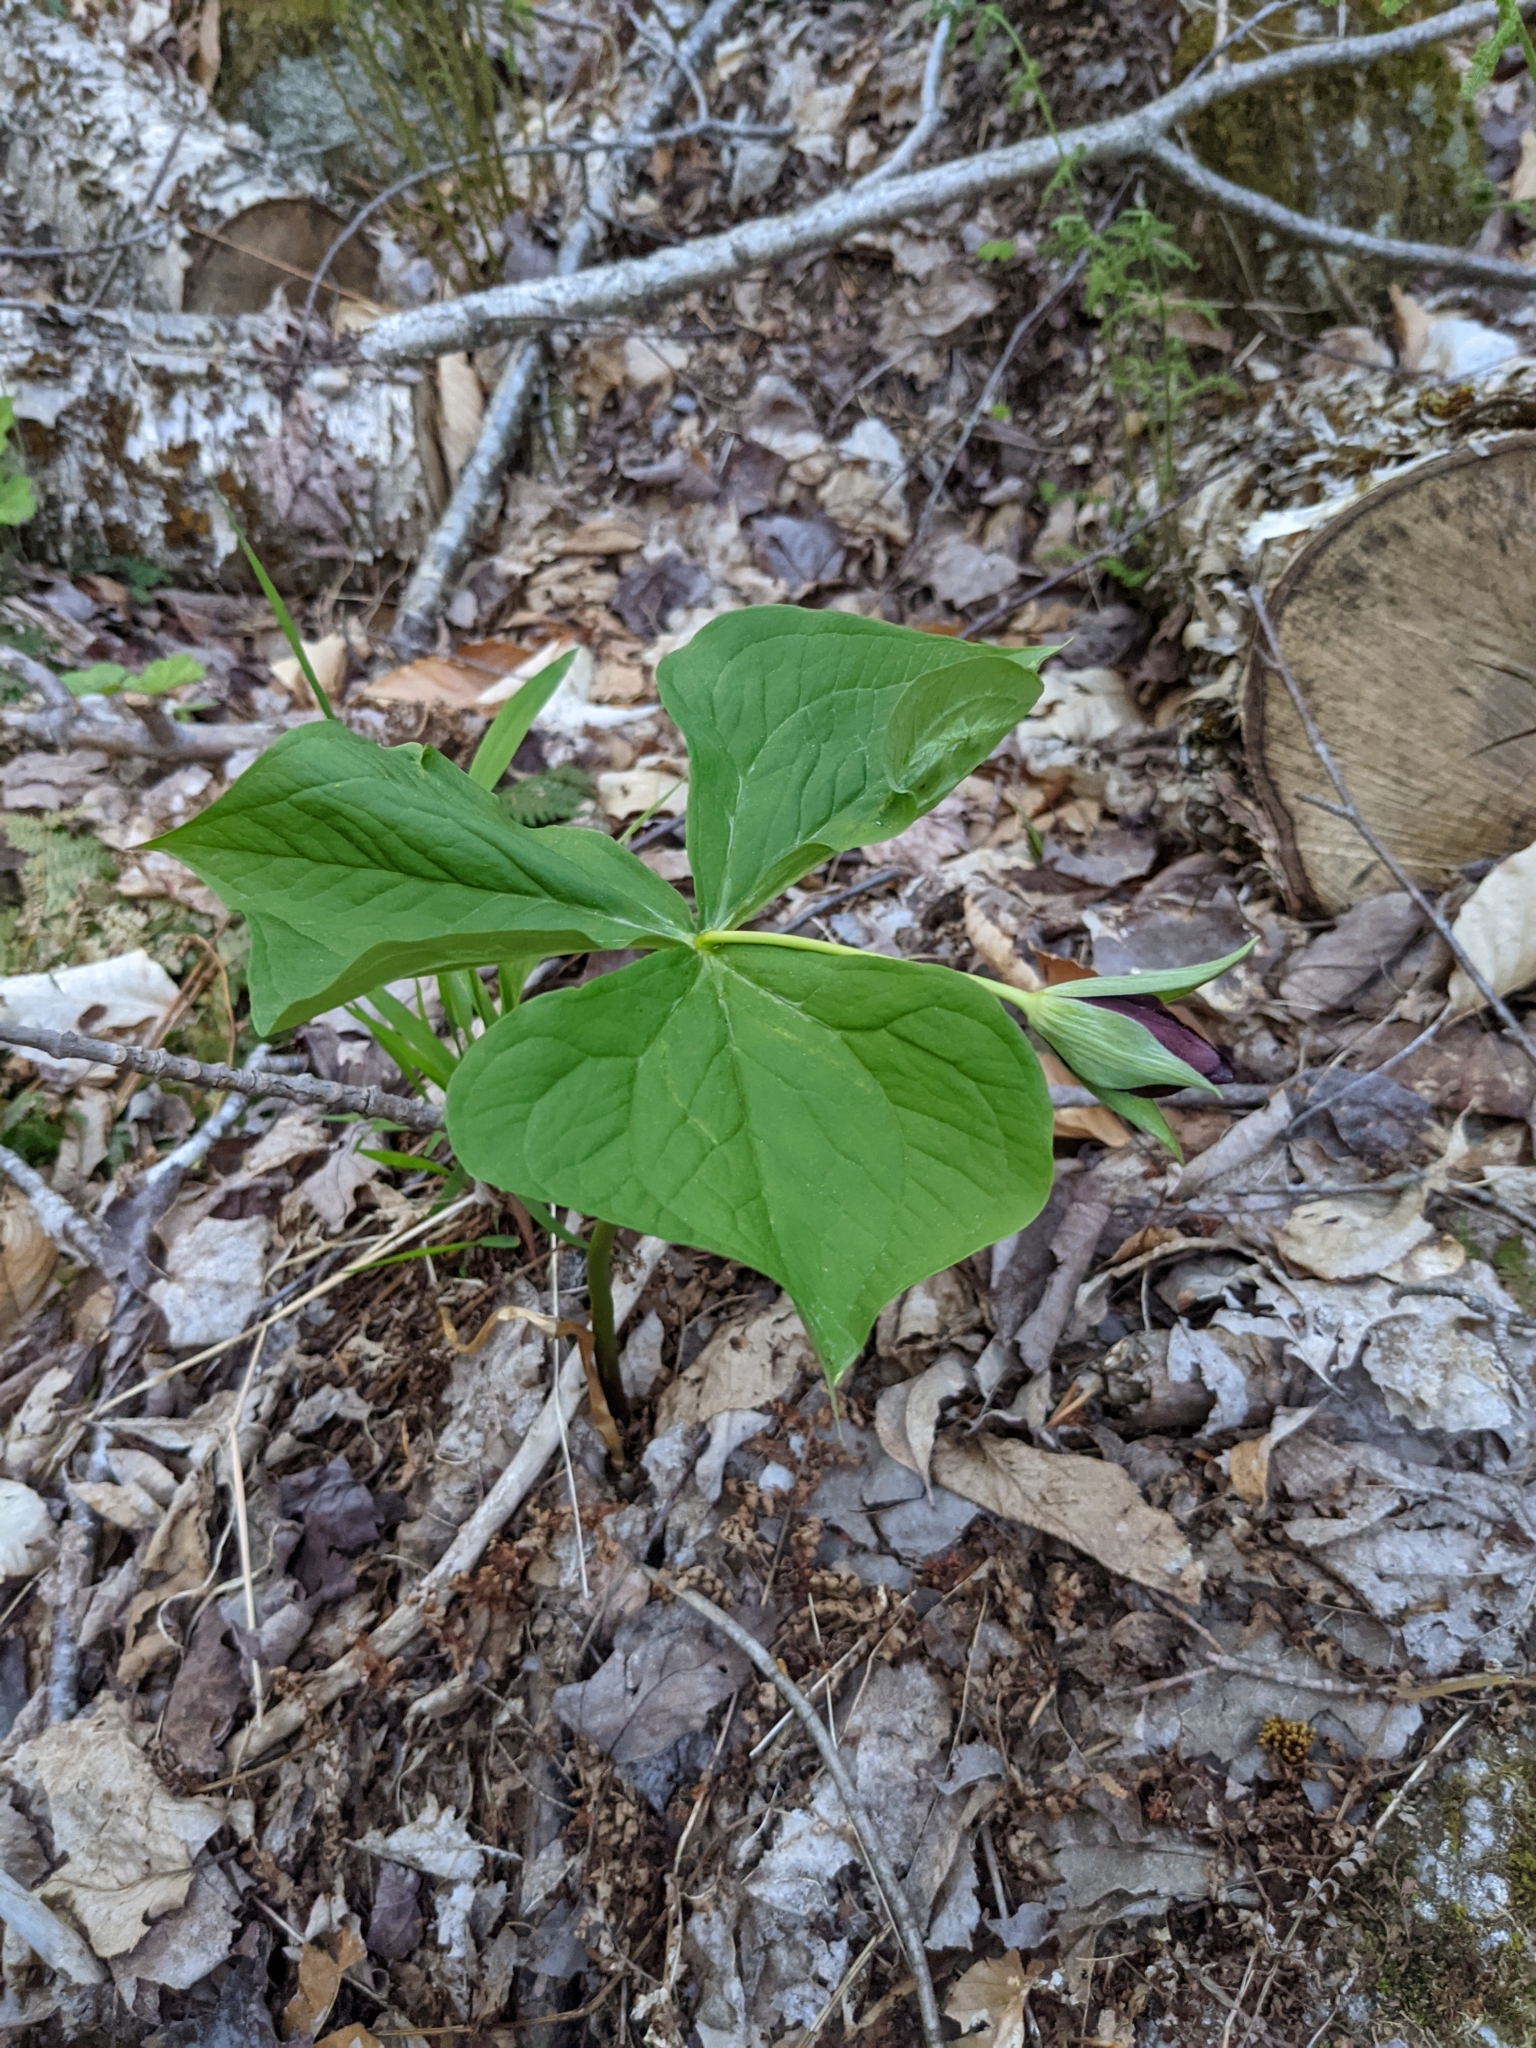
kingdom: Plantae
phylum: Tracheophyta
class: Liliopsida
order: Liliales
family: Melanthiaceae
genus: Trillium
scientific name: Trillium erectum
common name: Purple trillium
